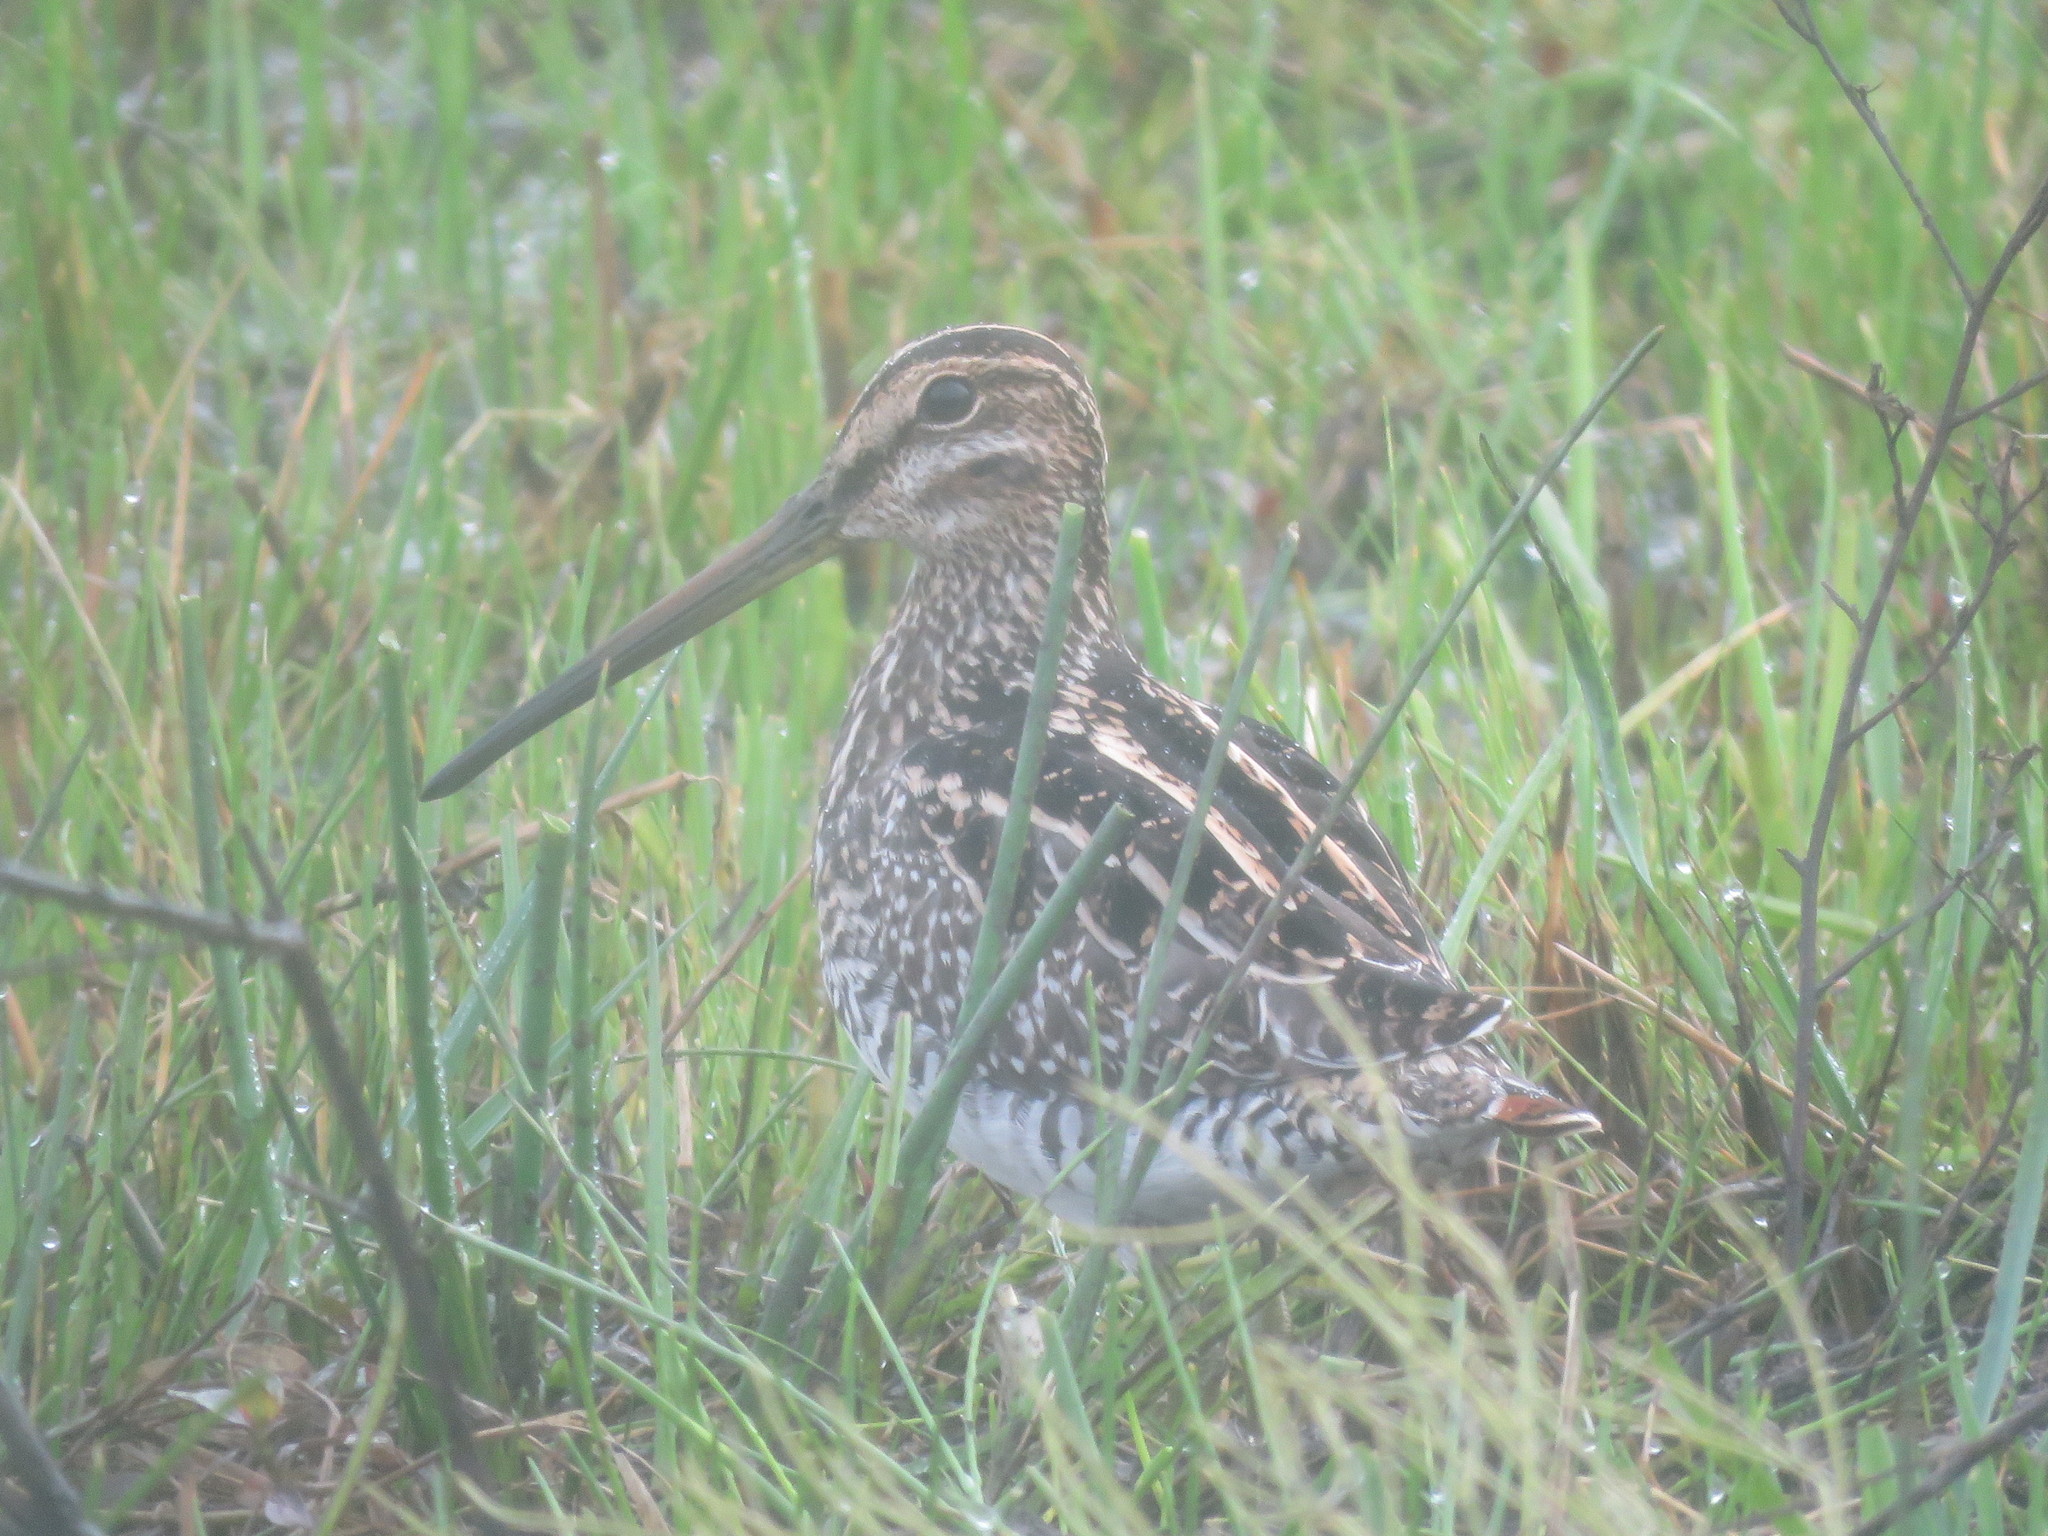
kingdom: Animalia
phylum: Chordata
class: Aves
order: Charadriiformes
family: Scolopacidae
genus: Gallinago
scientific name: Gallinago paraguaiae
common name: South american snipe
